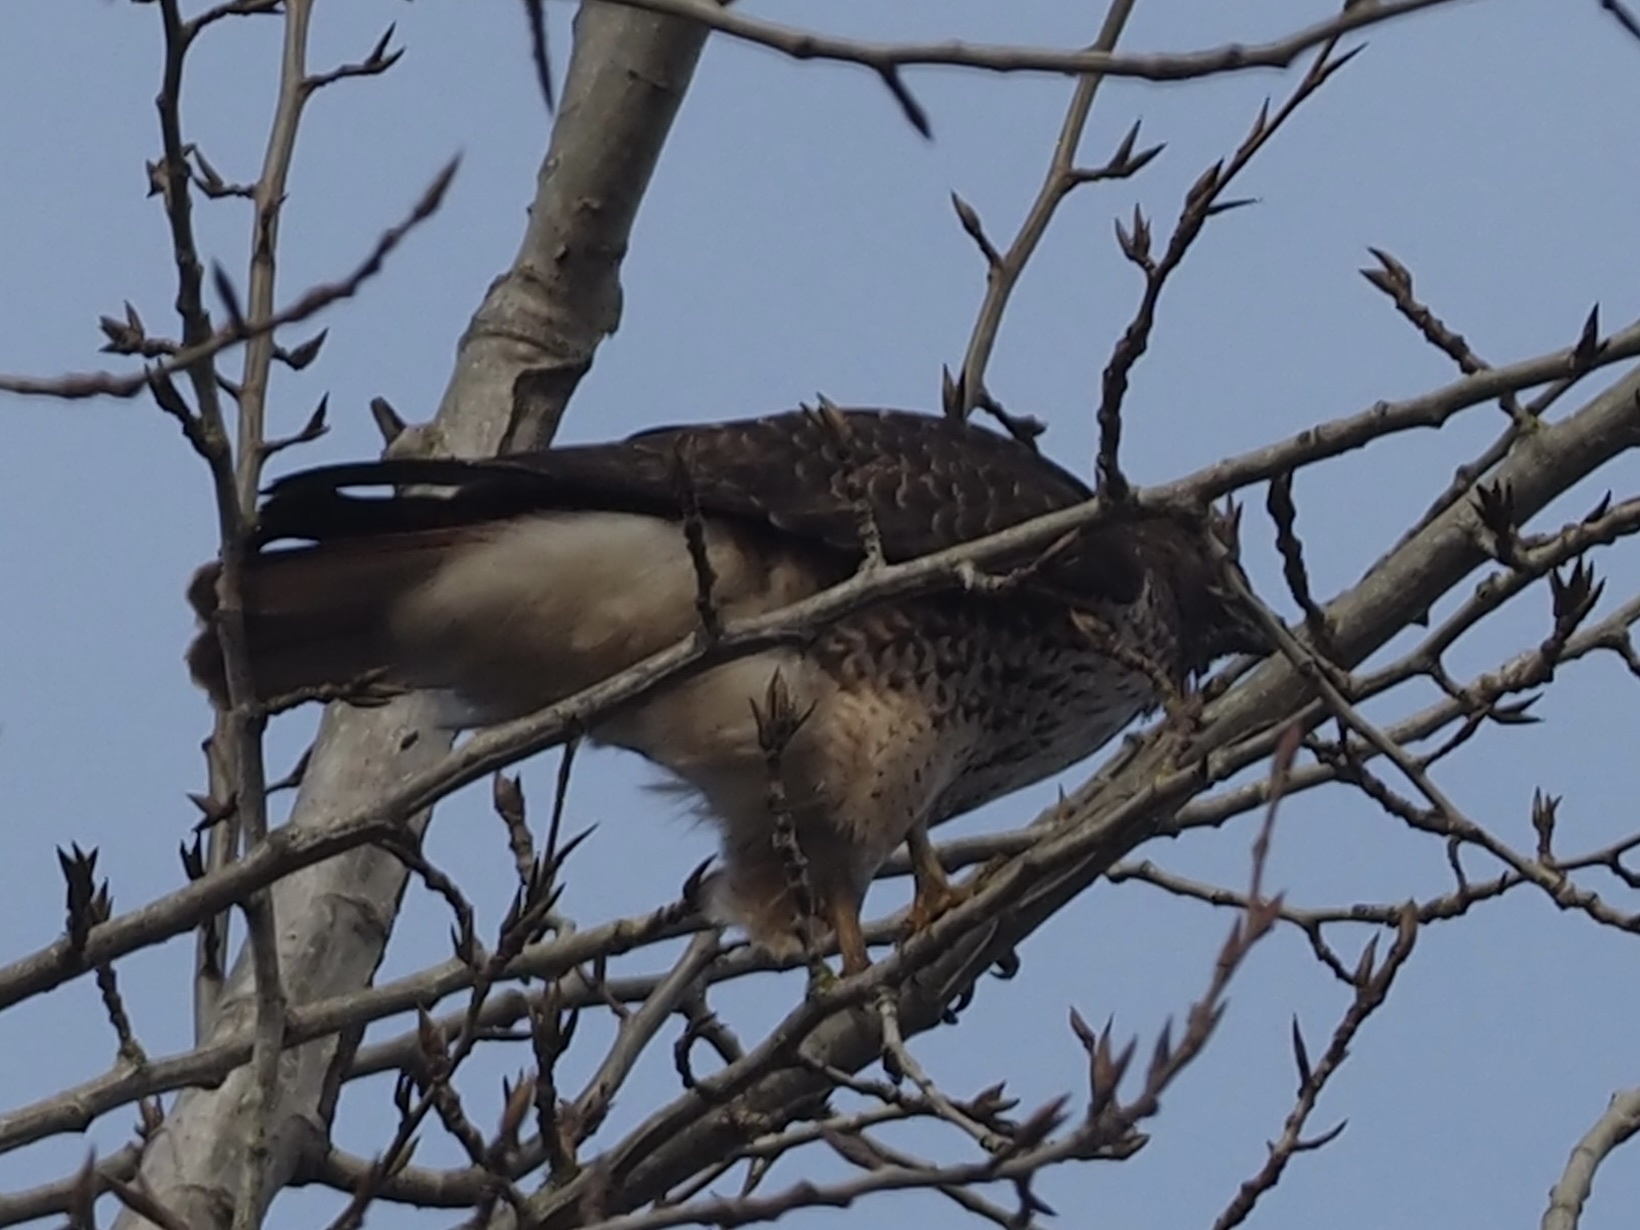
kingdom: Animalia
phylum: Chordata
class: Aves
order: Accipitriformes
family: Accipitridae
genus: Buteo
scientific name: Buteo jamaicensis
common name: Red-tailed hawk
